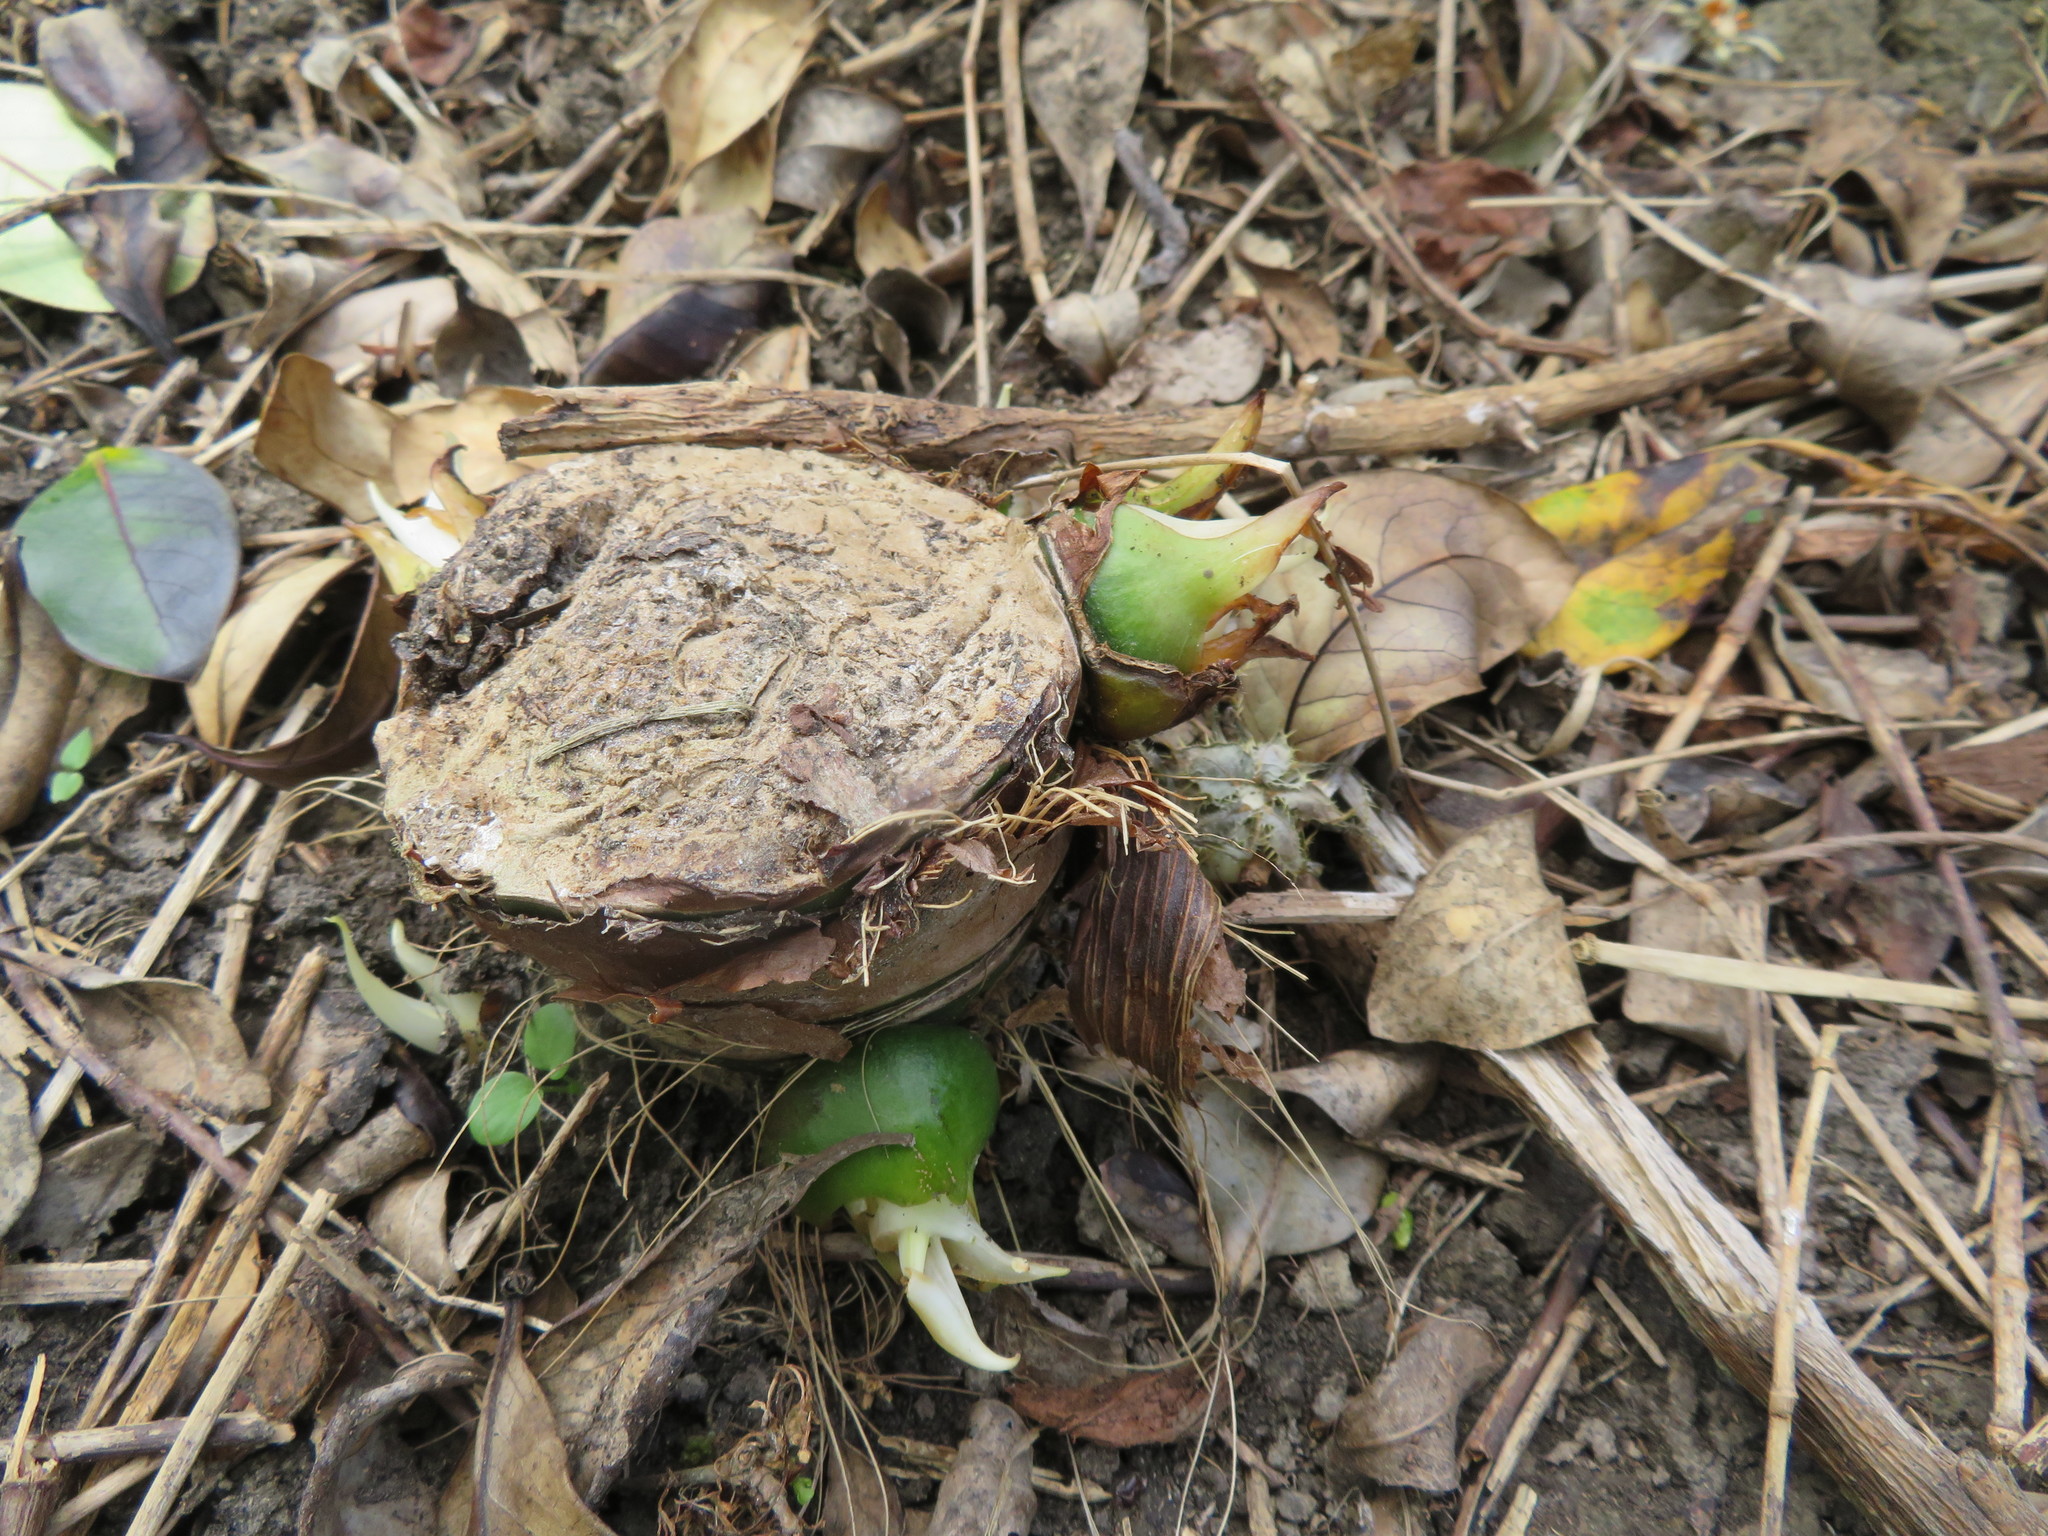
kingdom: Plantae
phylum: Tracheophyta
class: Liliopsida
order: Alismatales
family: Araceae
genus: Alocasia
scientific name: Alocasia brisbanensis
